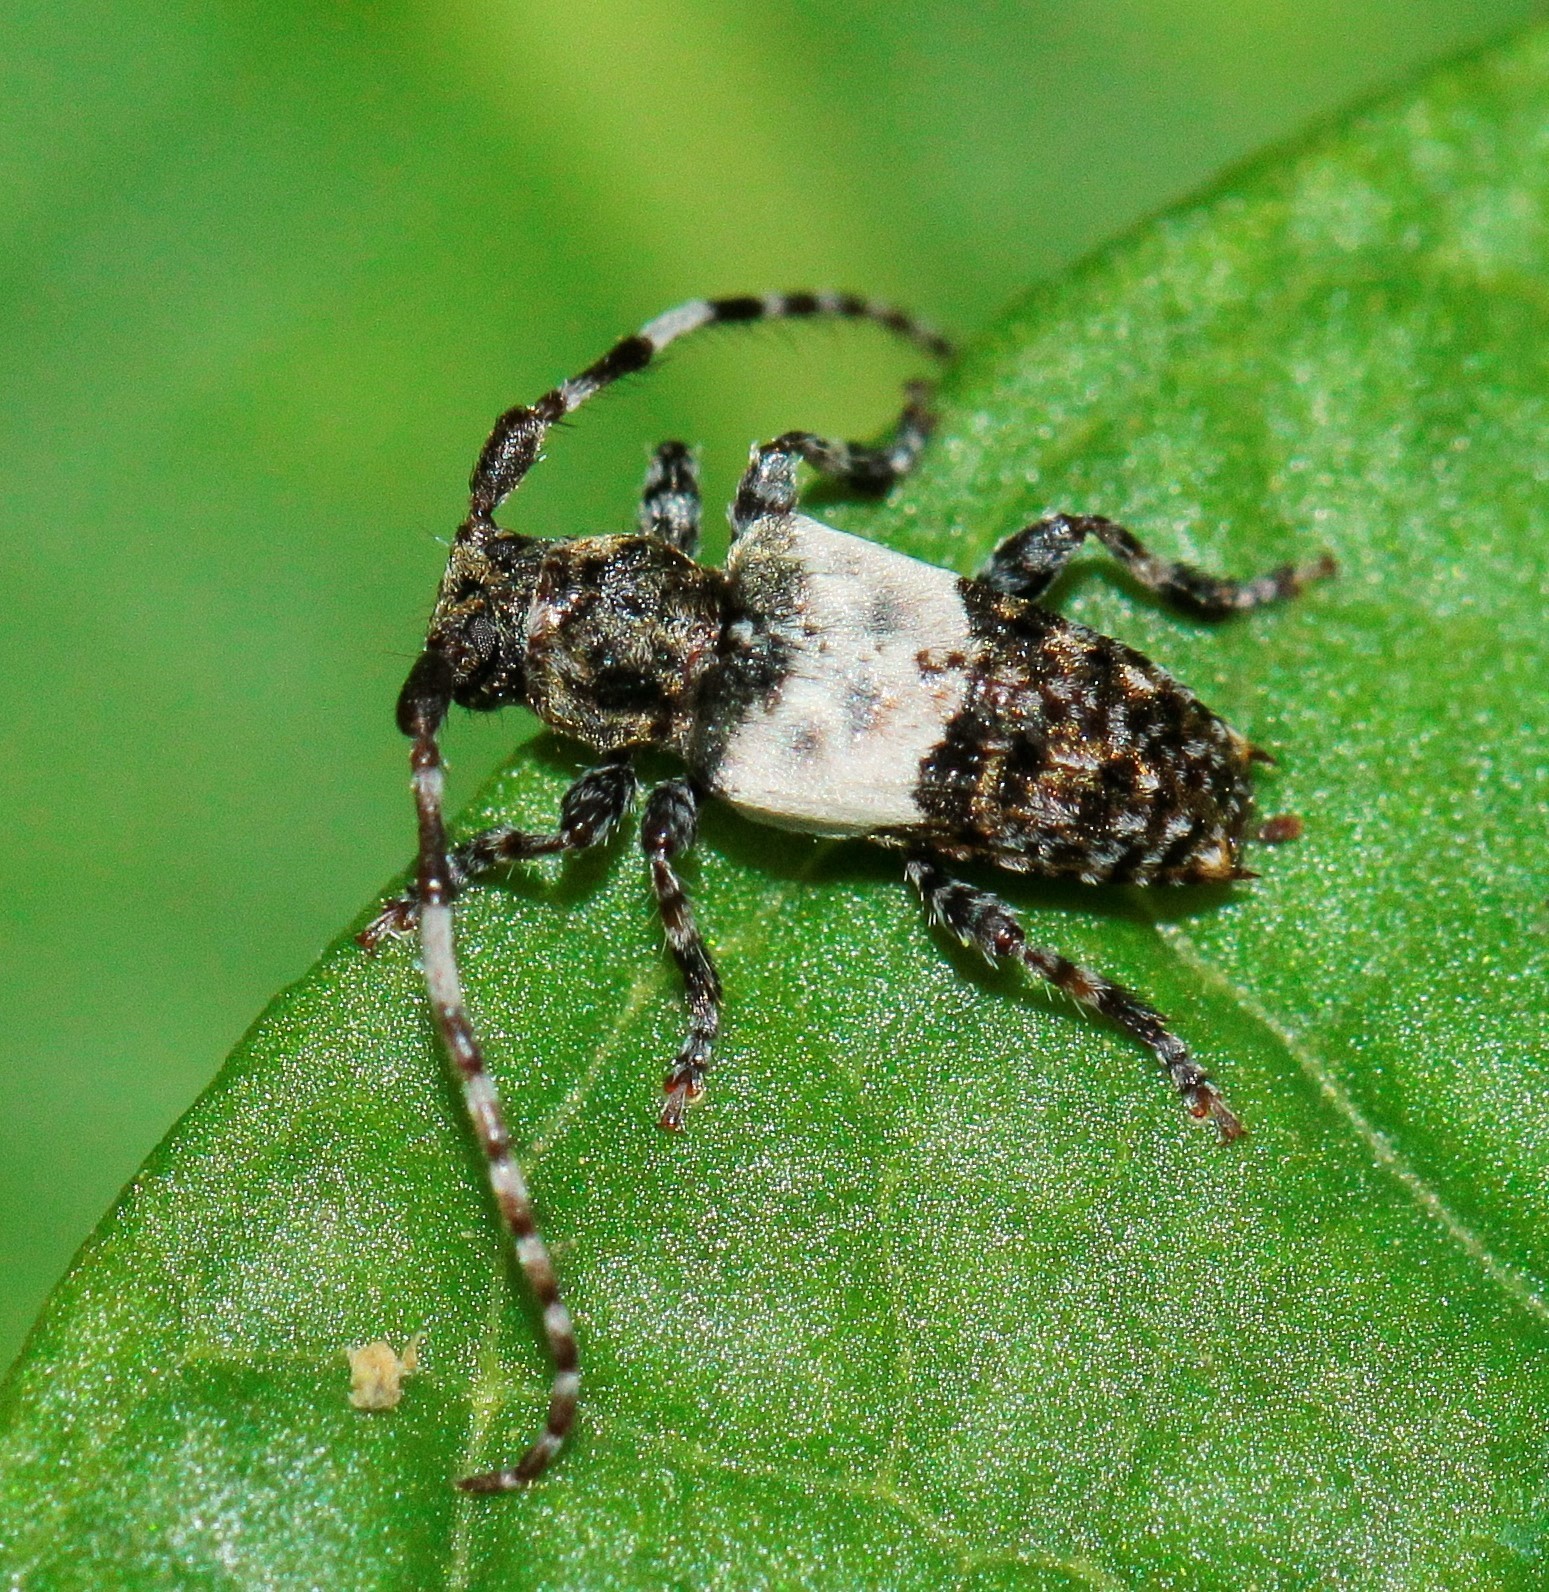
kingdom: Animalia
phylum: Arthropoda
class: Insecta
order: Coleoptera
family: Cerambycidae
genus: Pogonocherus
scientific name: Pogonocherus hispidulus
